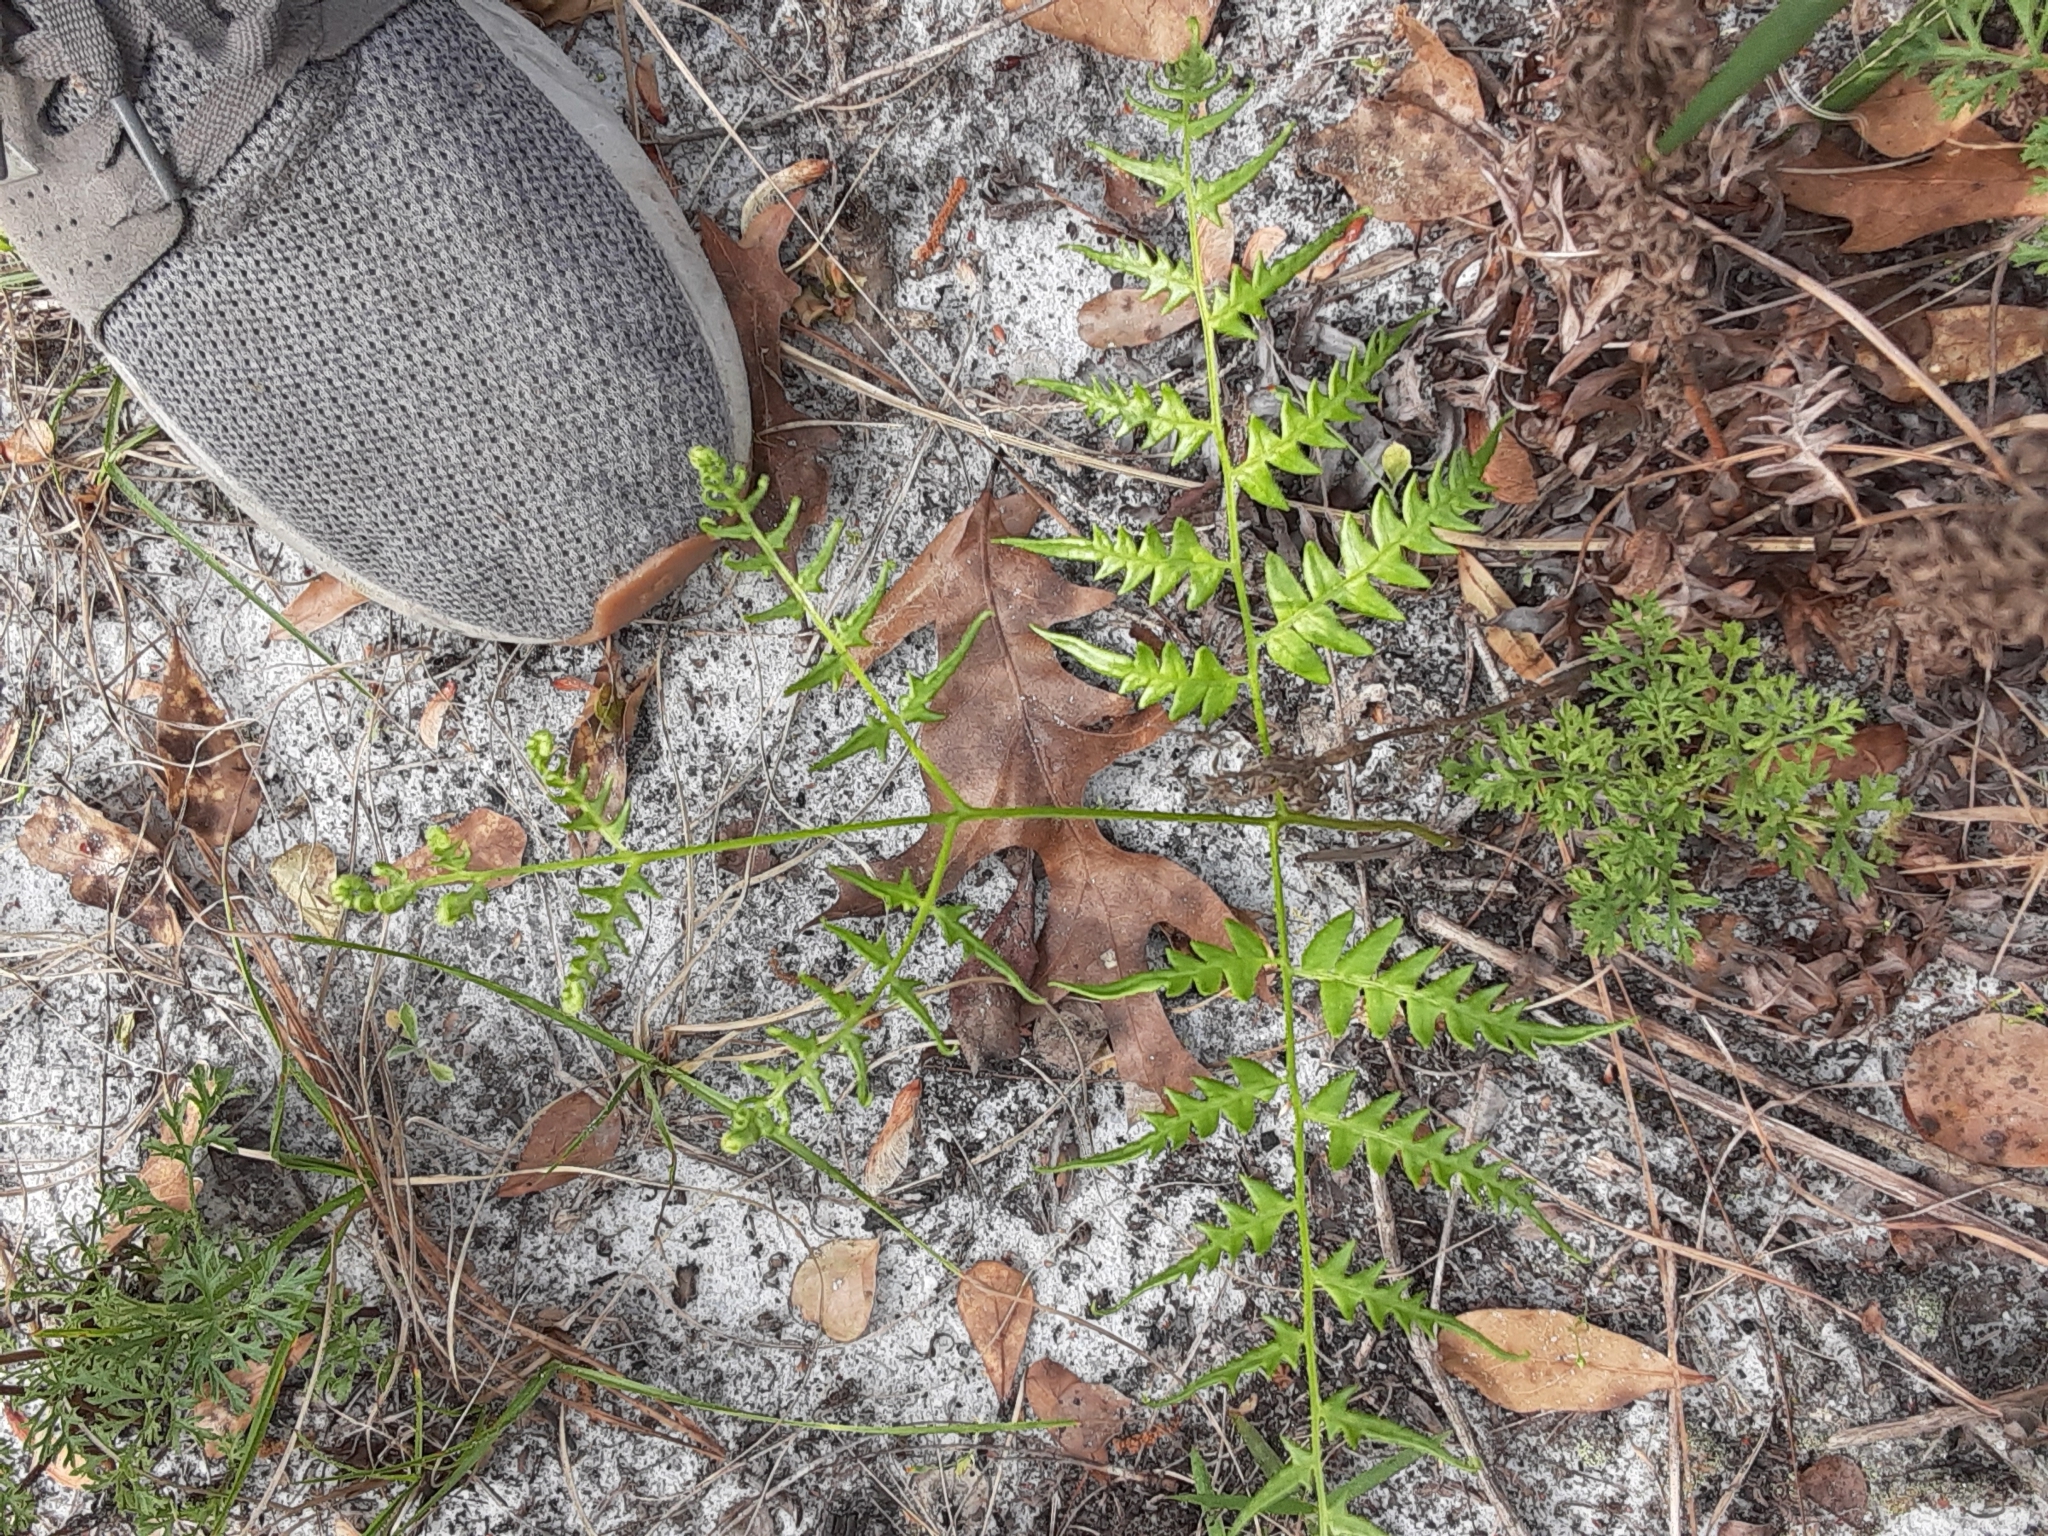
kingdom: Plantae
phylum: Tracheophyta
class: Polypodiopsida
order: Polypodiales
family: Dennstaedtiaceae
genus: Pteridium
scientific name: Pteridium aquilinum
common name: Bracken
